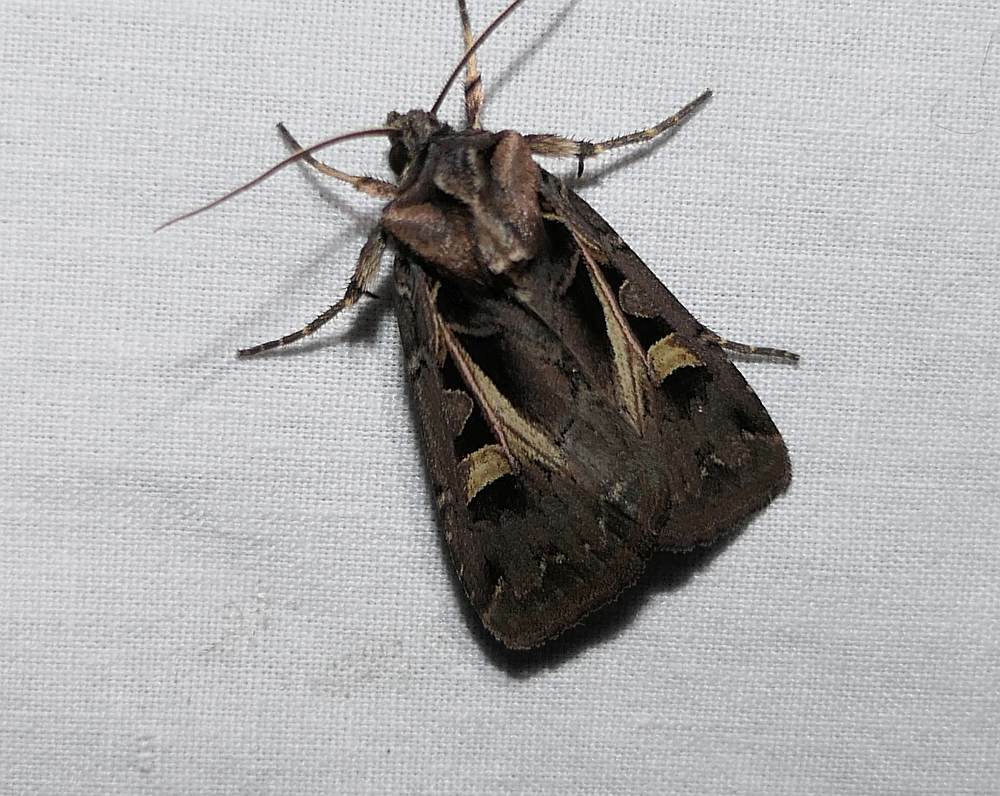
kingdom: Animalia
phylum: Arthropoda
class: Insecta
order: Lepidoptera
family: Noctuidae
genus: Feltia
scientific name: Feltia herilis
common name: Master's dart
